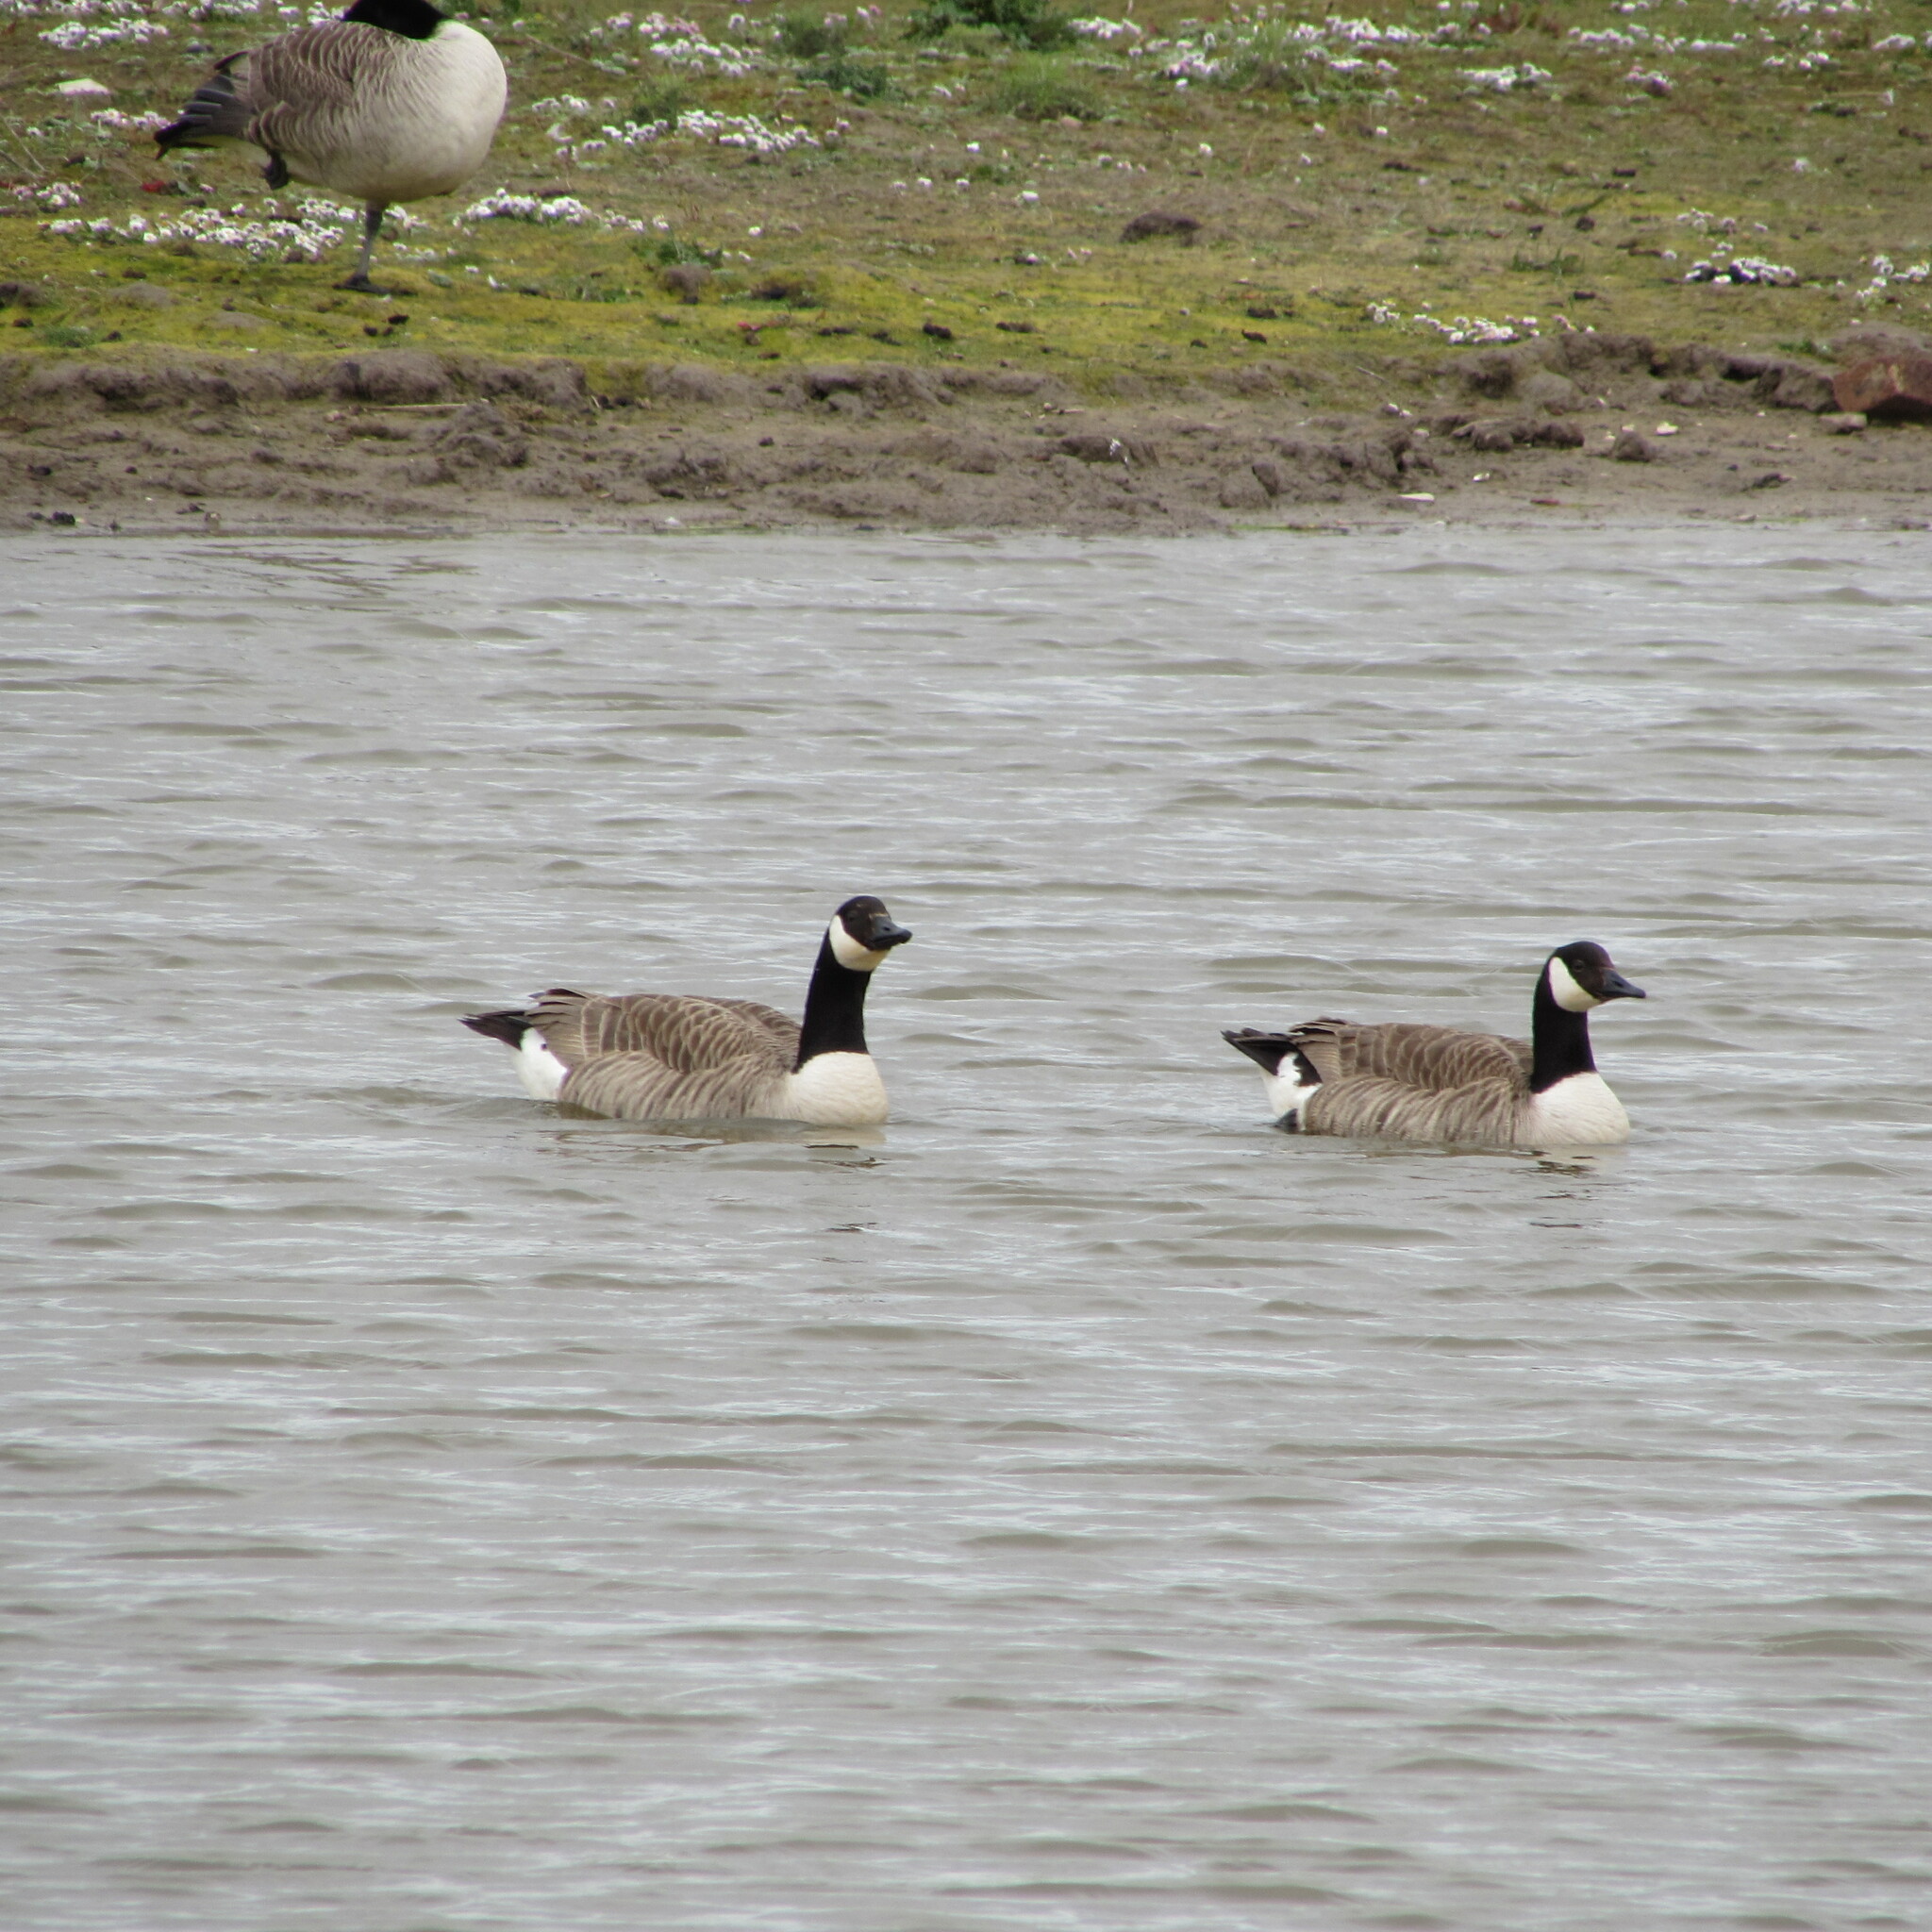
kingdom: Animalia
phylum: Chordata
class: Aves
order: Anseriformes
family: Anatidae
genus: Branta
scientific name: Branta canadensis
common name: Canada goose
